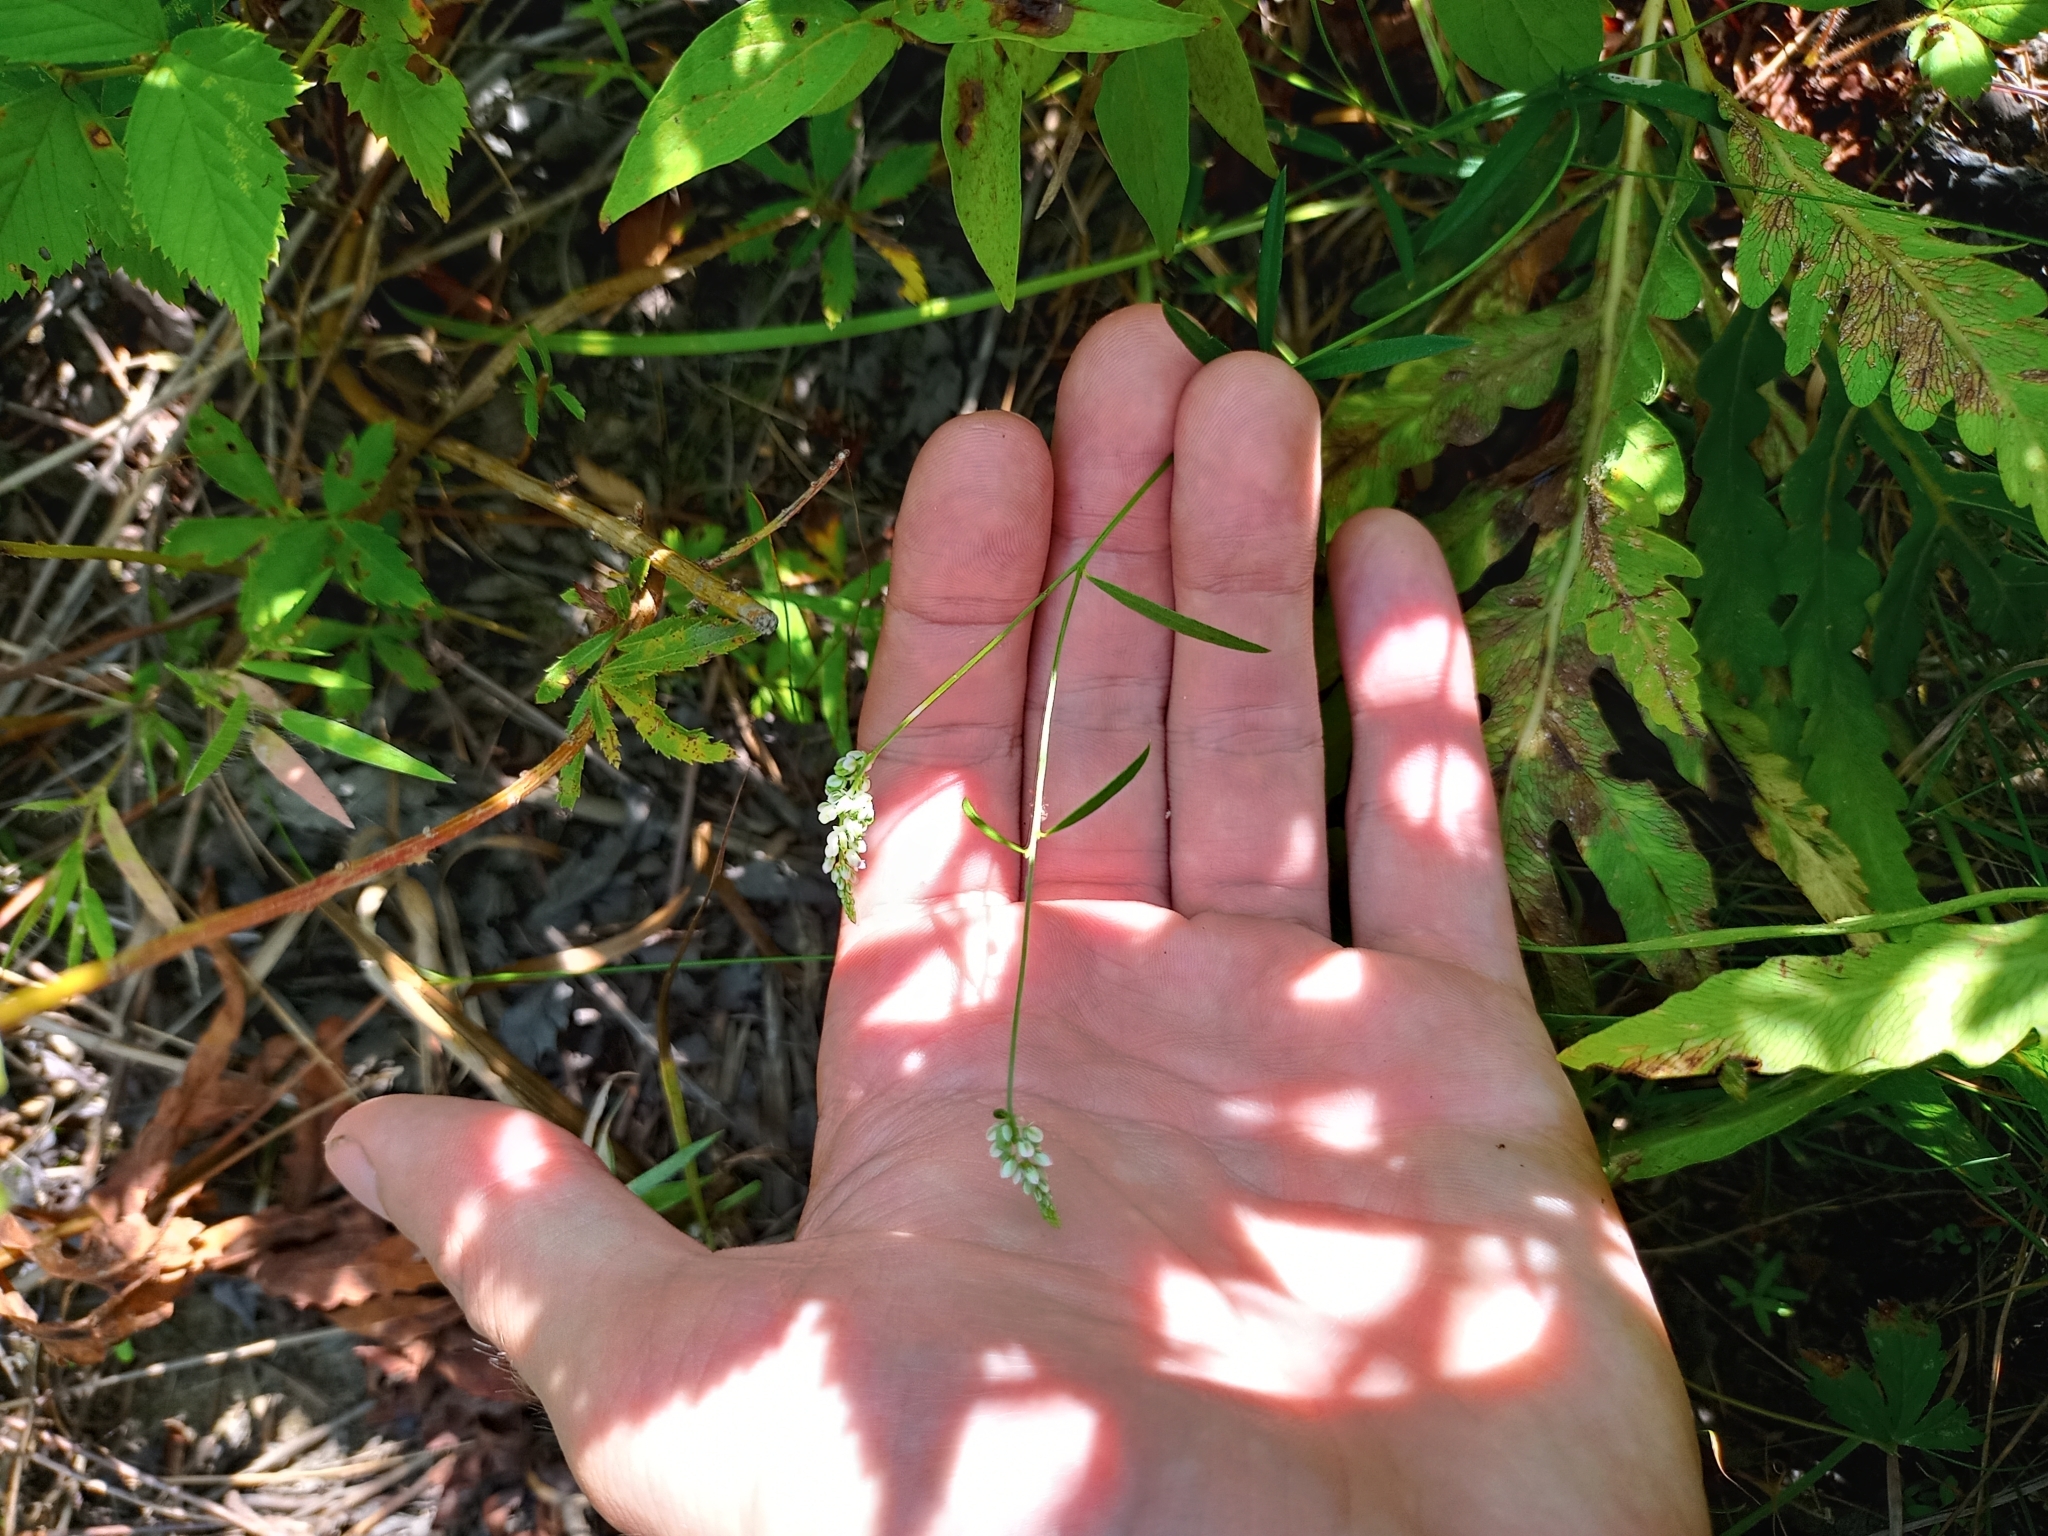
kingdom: Plantae
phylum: Tracheophyta
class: Magnoliopsida
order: Fabales
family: Polygalaceae
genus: Polygala
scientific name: Polygala verticillata
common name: Whorl milkwort
